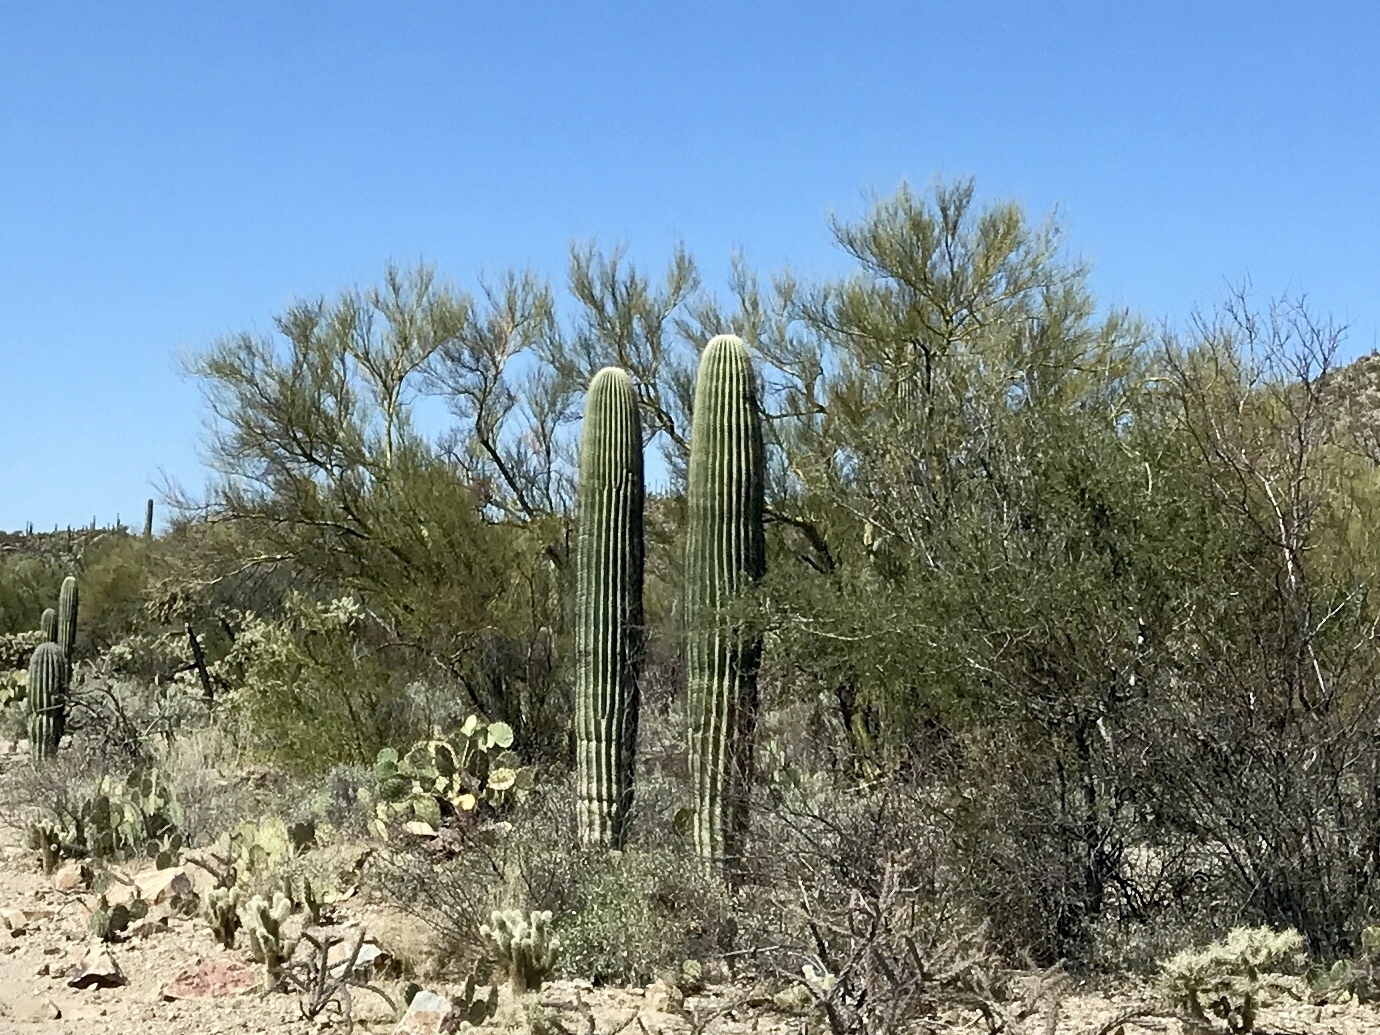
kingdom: Plantae
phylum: Tracheophyta
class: Magnoliopsida
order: Caryophyllales
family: Cactaceae
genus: Carnegiea
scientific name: Carnegiea gigantea
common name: Saguaro
